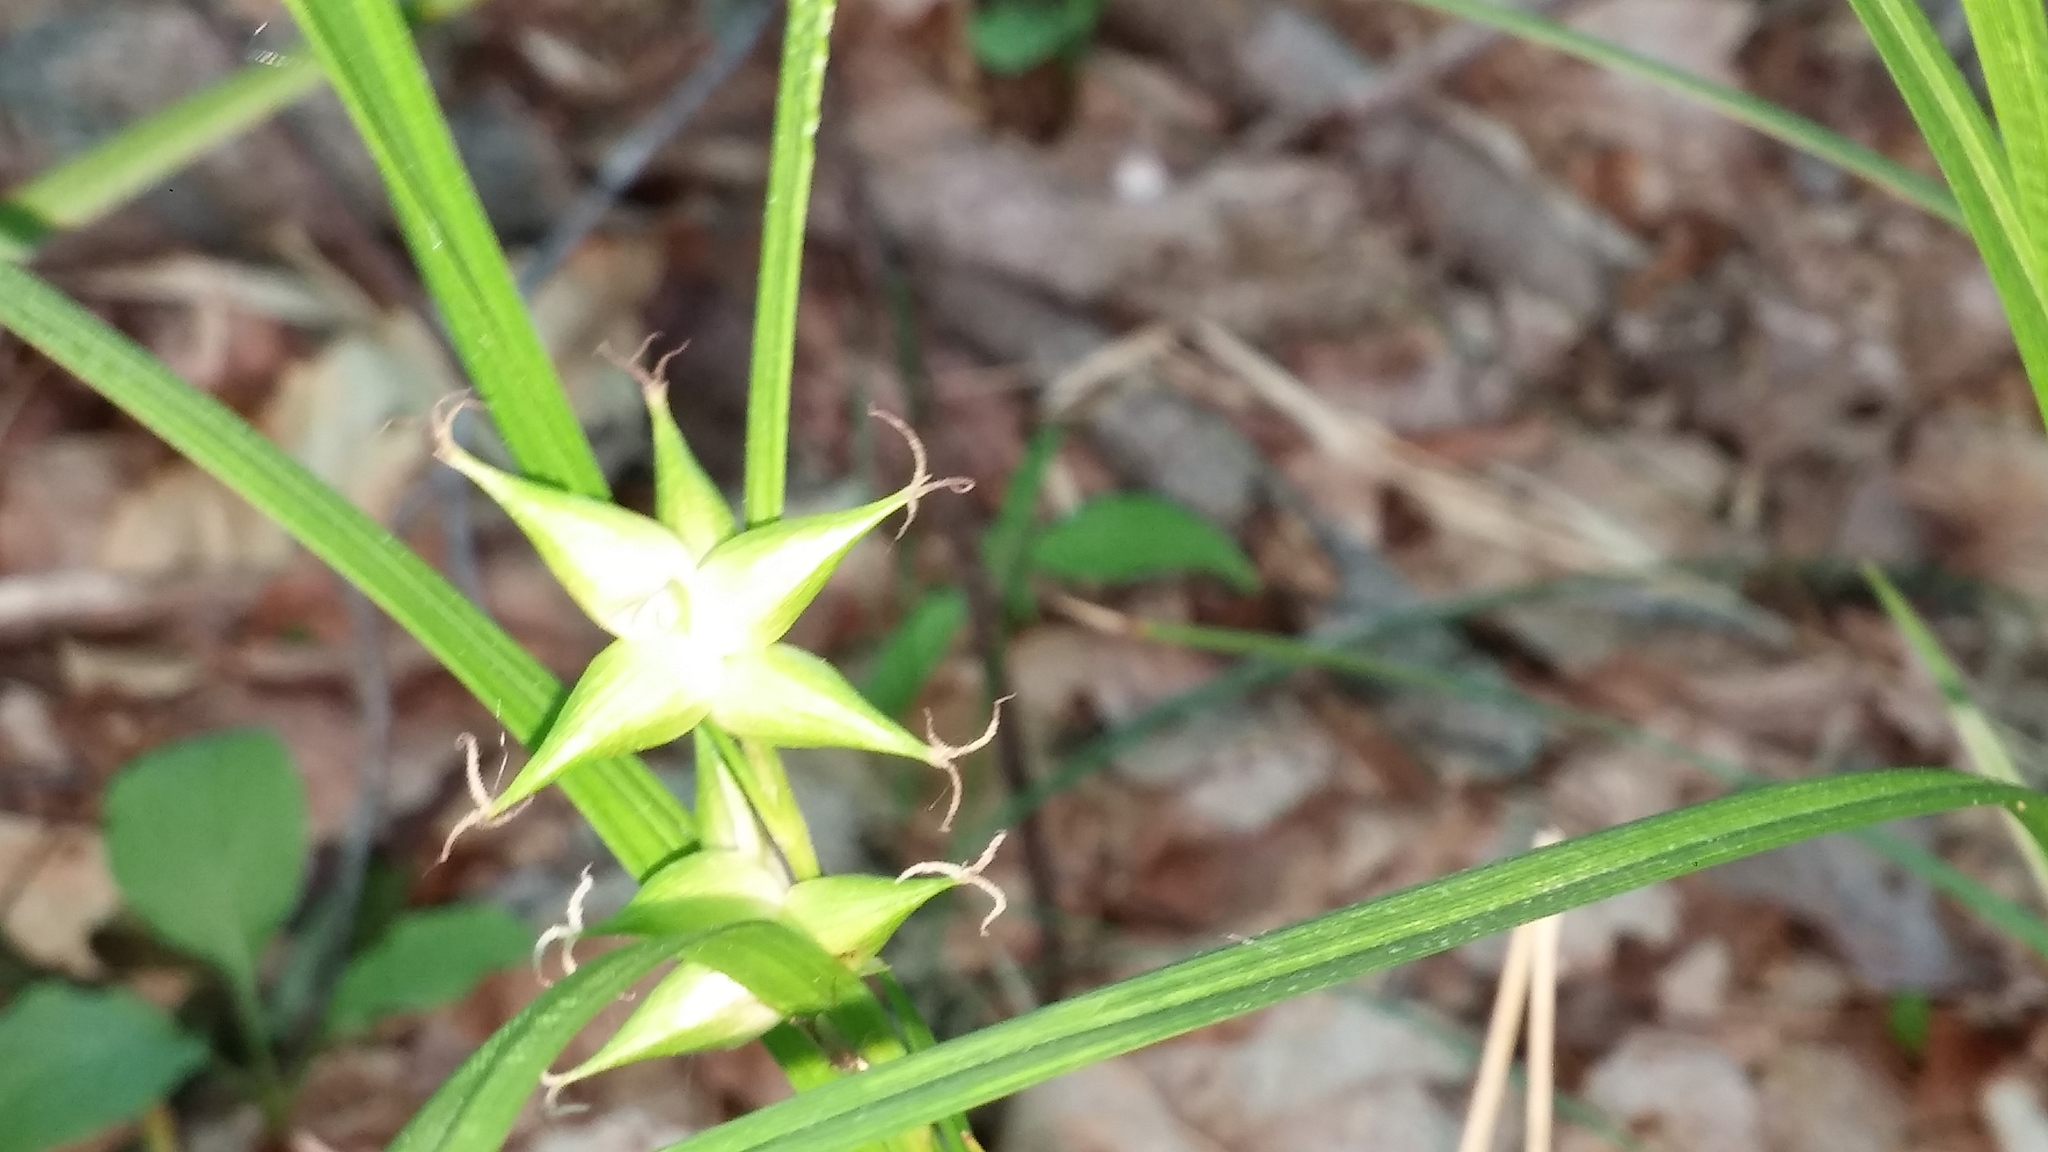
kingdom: Plantae
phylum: Tracheophyta
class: Liliopsida
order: Poales
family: Cyperaceae
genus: Carex
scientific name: Carex intumescens
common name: Greater bladder sedge
